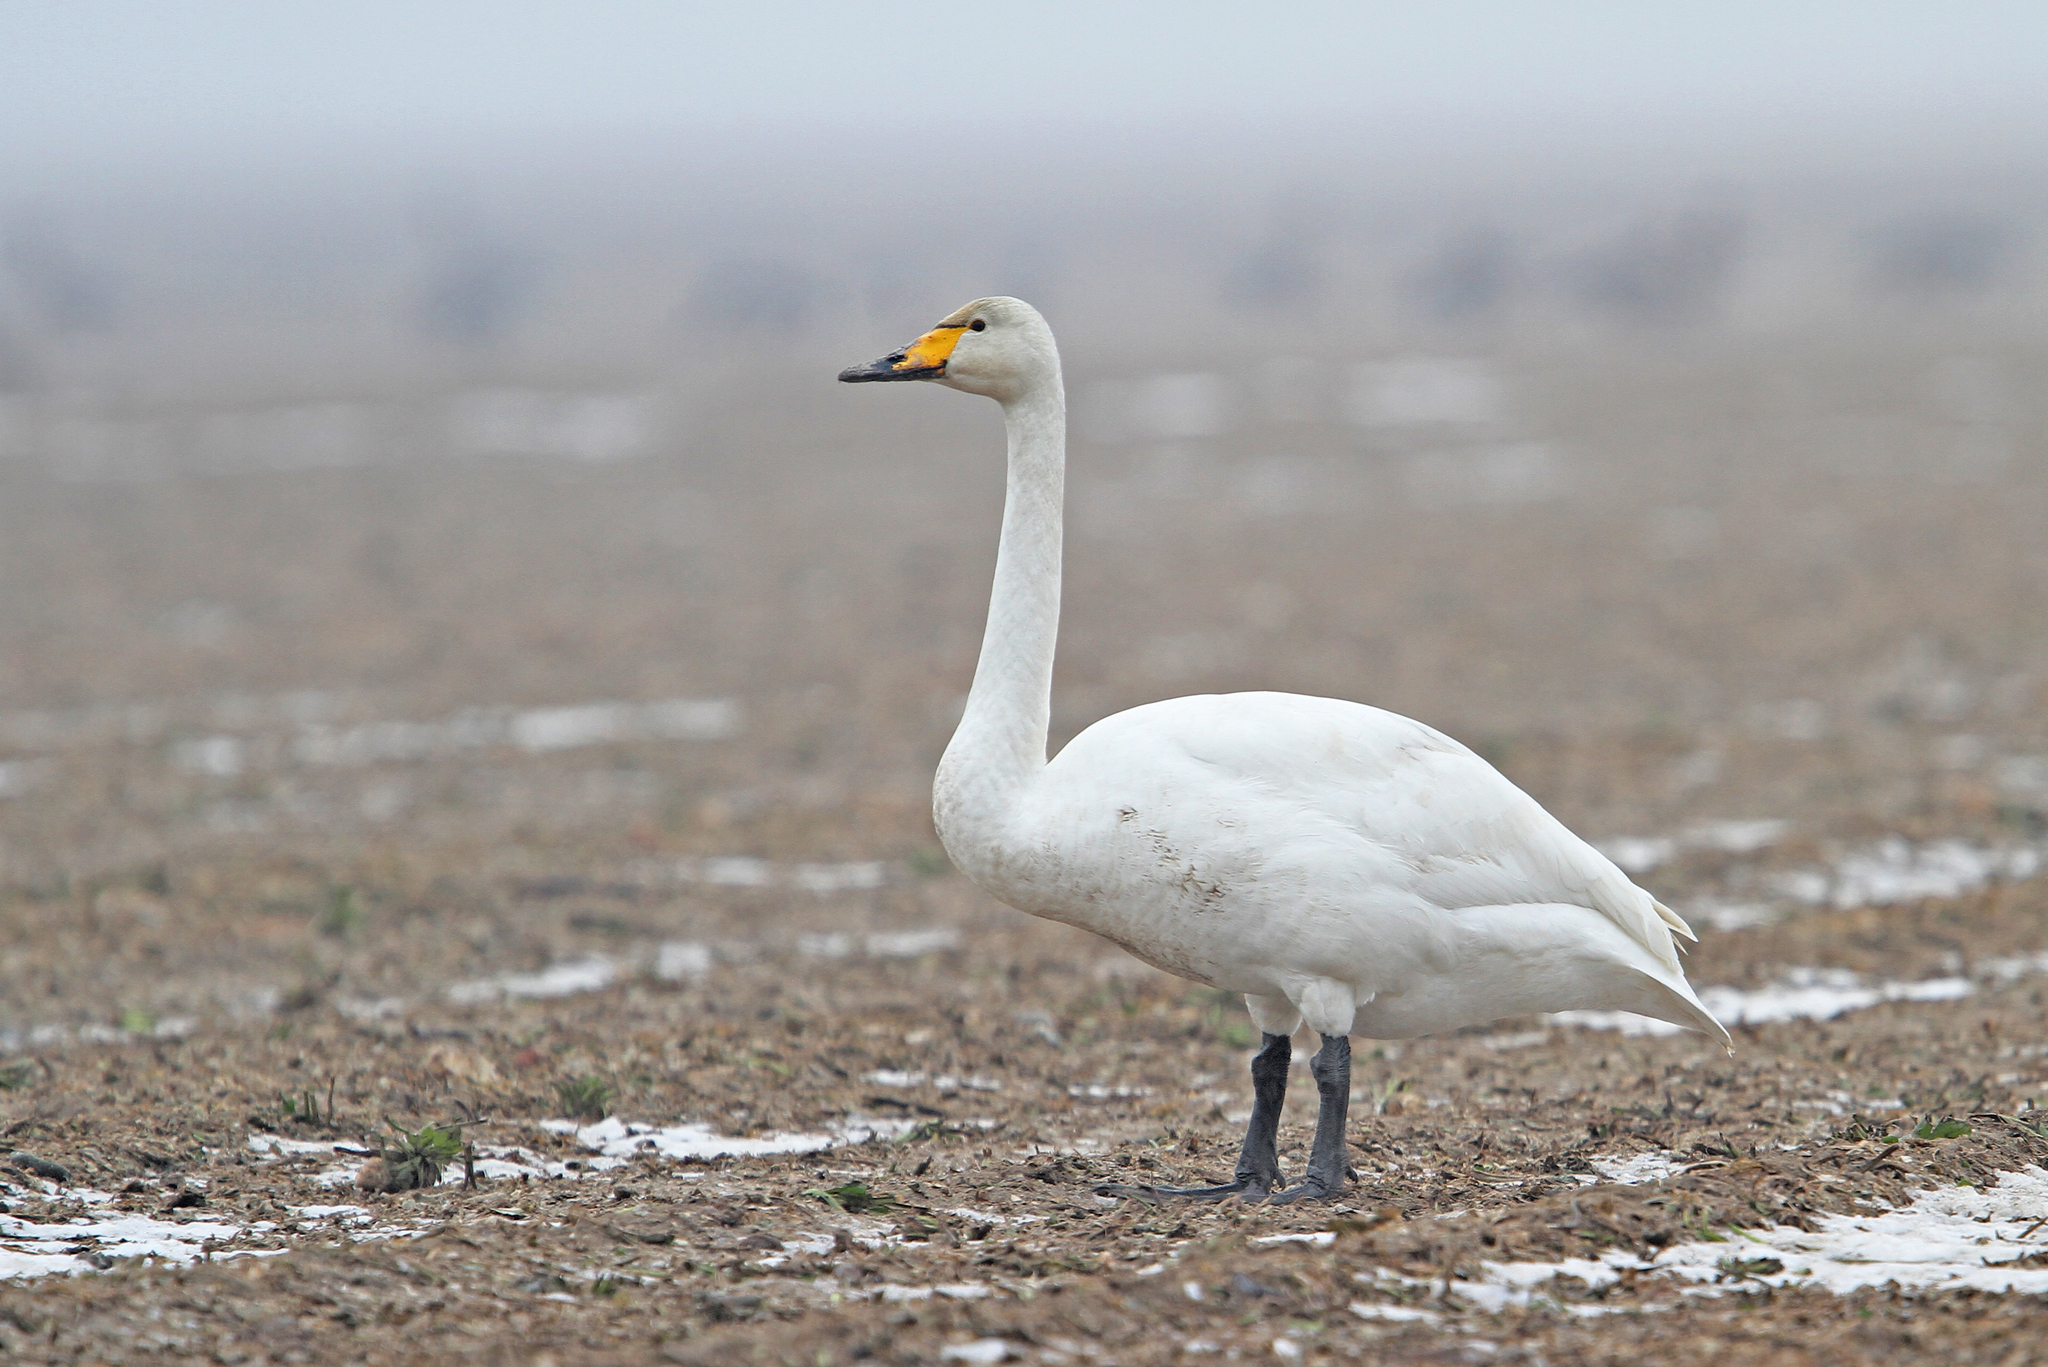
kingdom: Animalia
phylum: Chordata
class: Aves
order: Anseriformes
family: Anatidae
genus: Cygnus
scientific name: Cygnus cygnus
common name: Whooper swan
